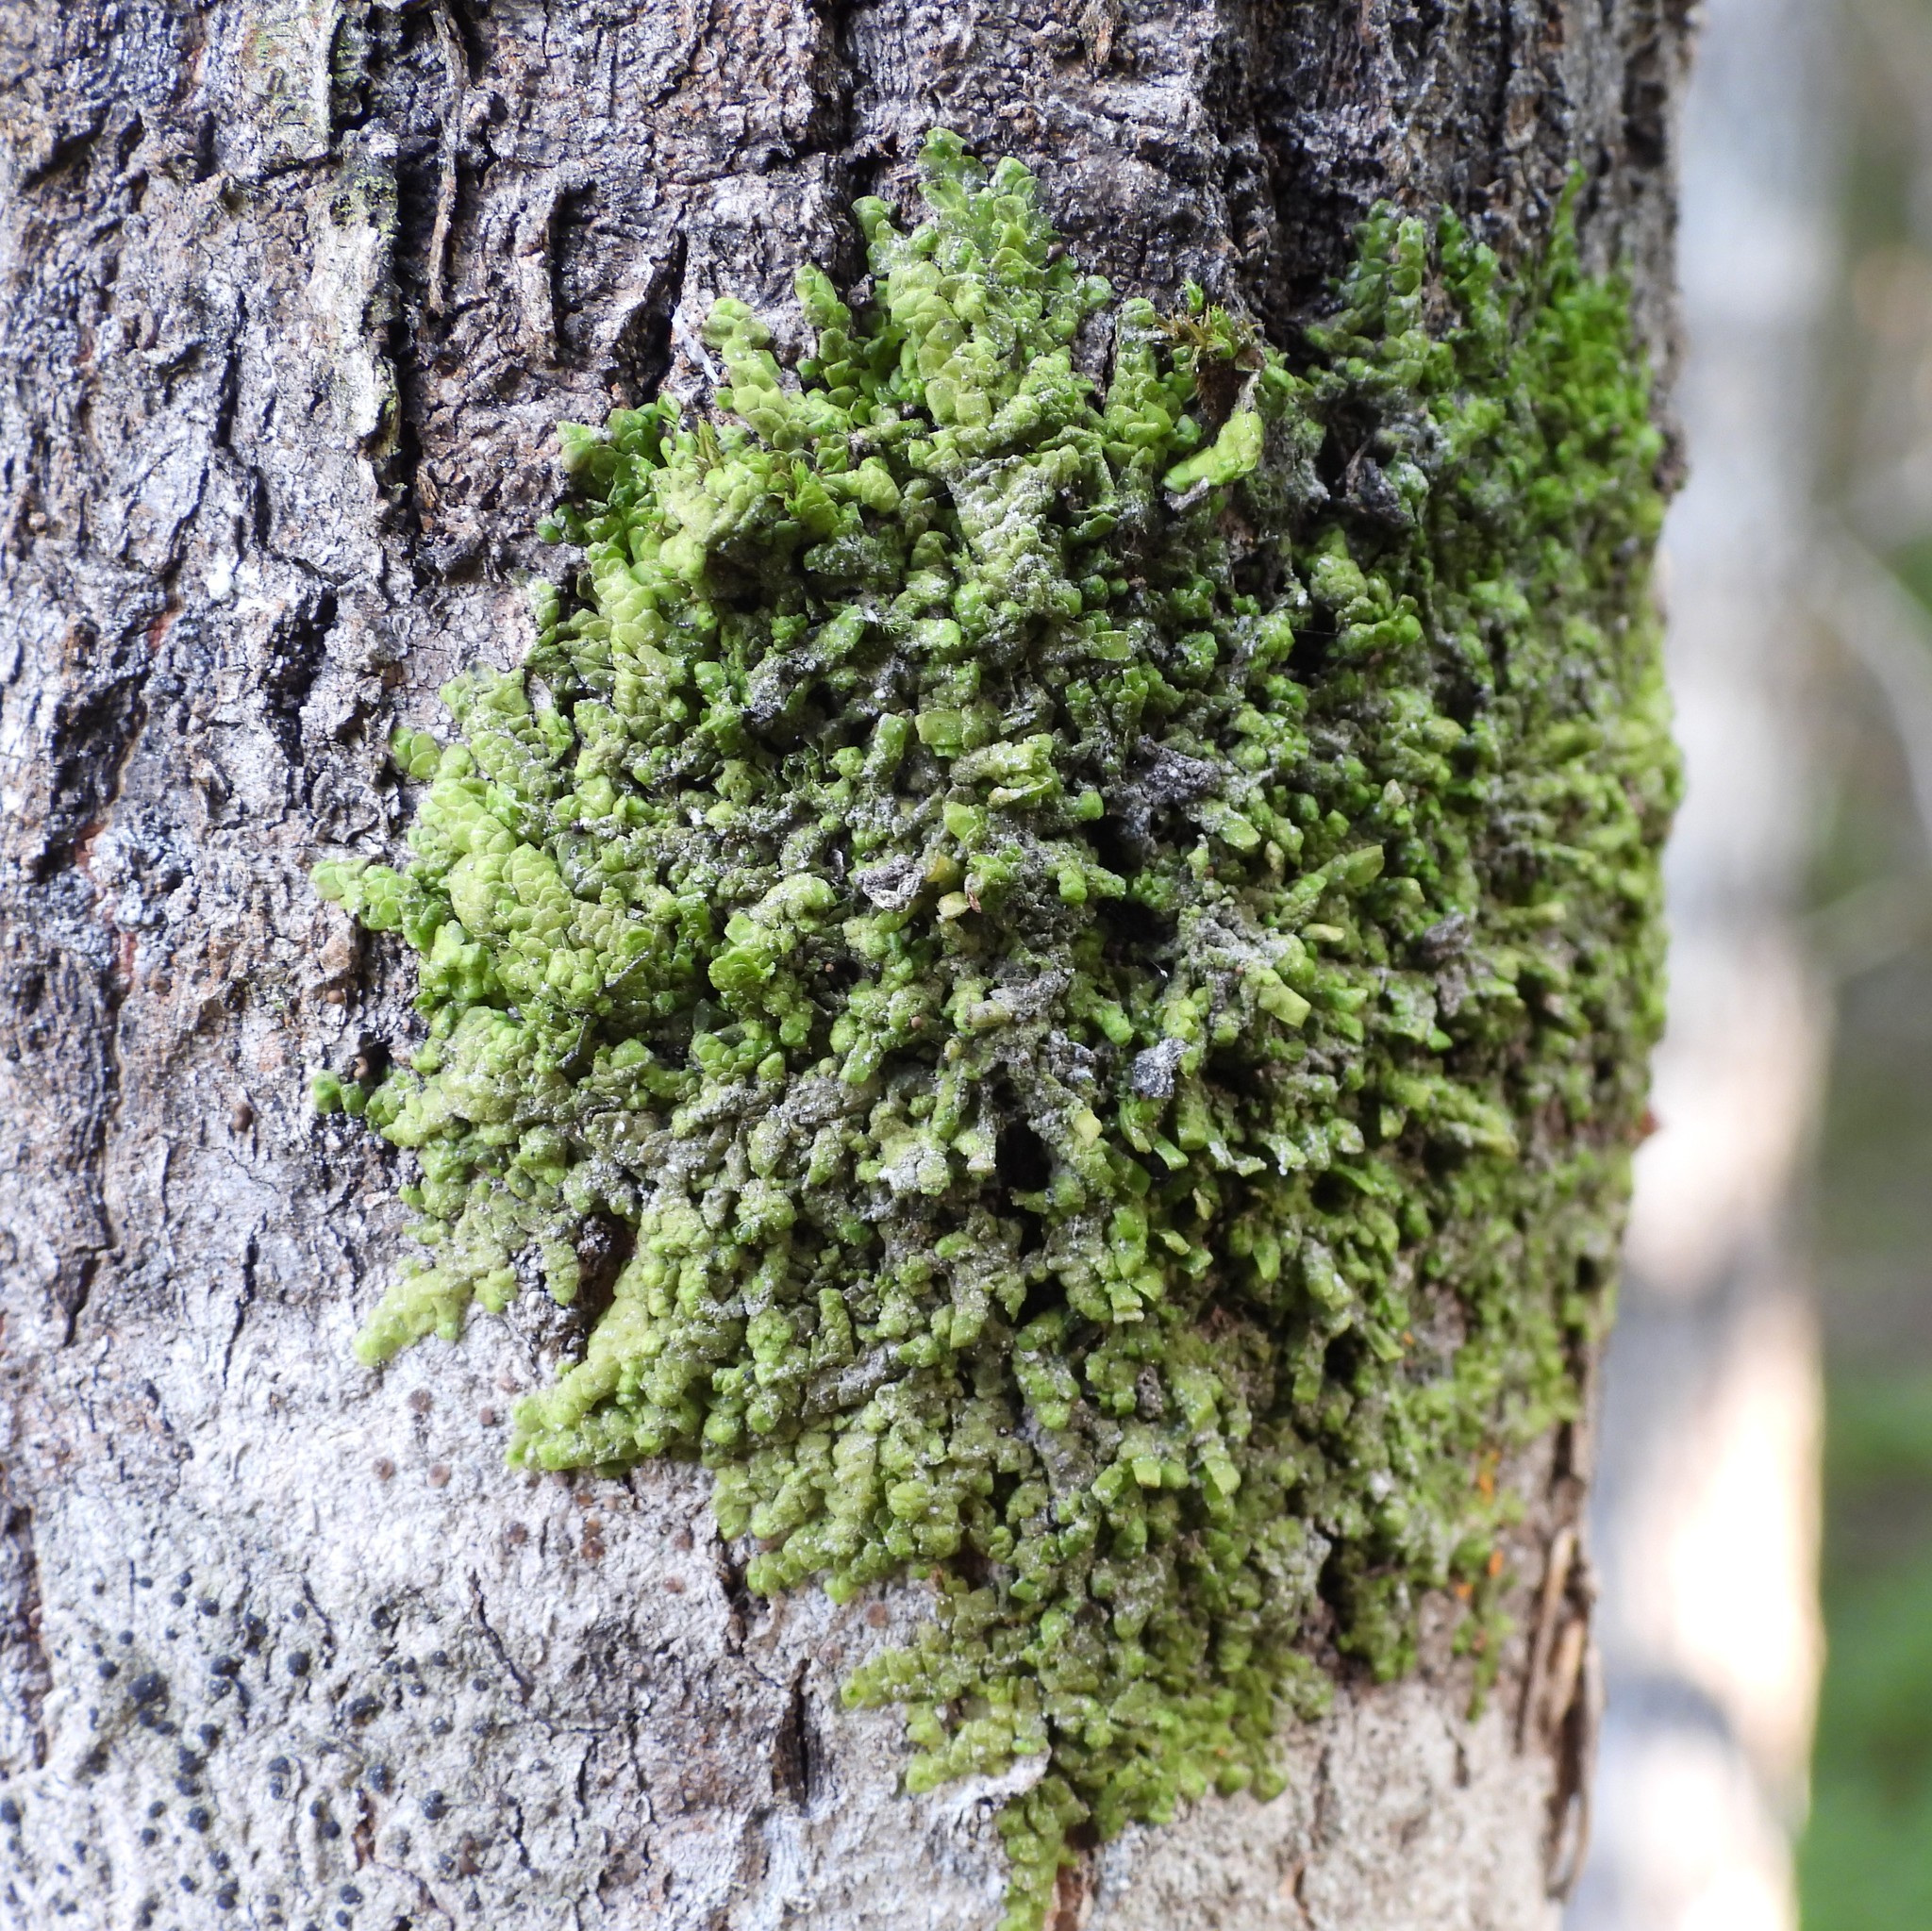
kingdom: Plantae
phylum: Marchantiophyta
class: Jungermanniopsida
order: Porellales
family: Radulaceae
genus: Radula
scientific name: Radula complanata
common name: Flat-leaved scalewort
